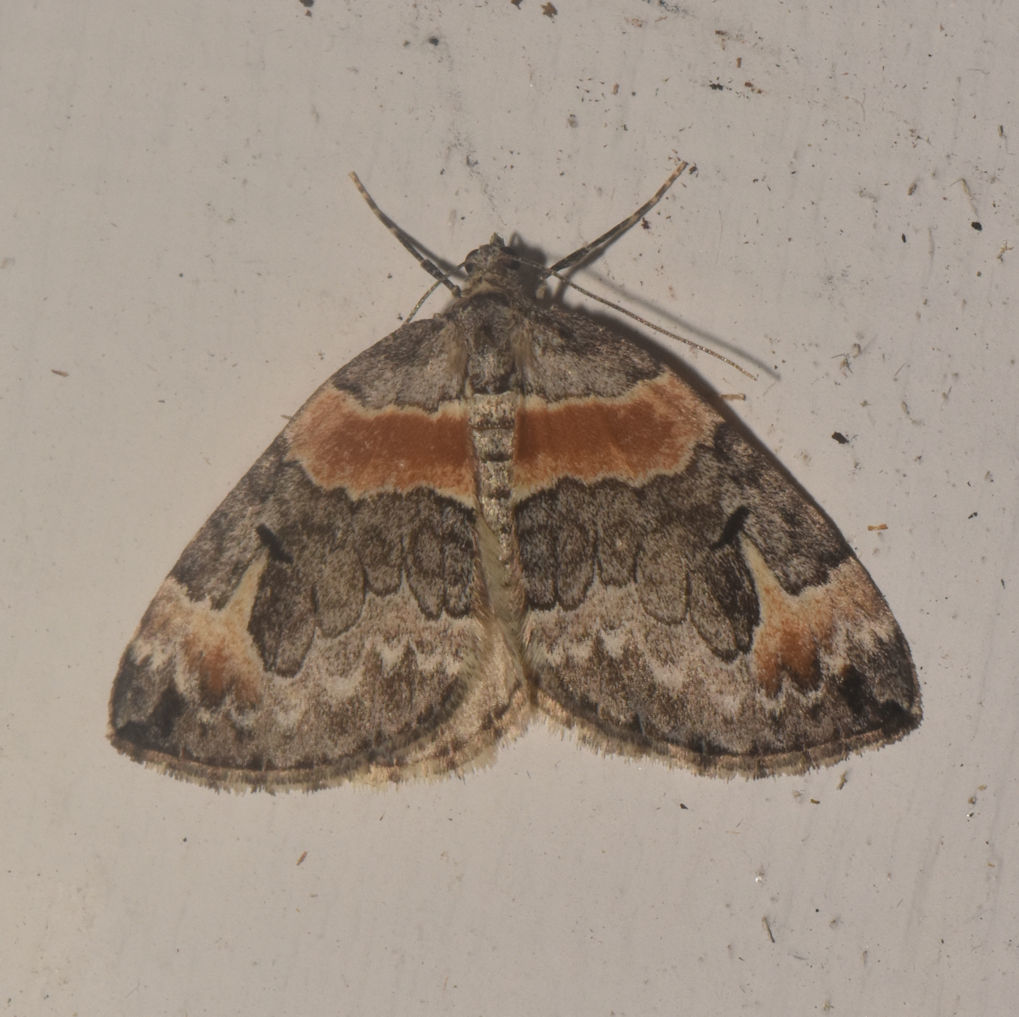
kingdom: Animalia
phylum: Arthropoda
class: Insecta
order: Lepidoptera
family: Geometridae
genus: Dysstroma
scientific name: Dysstroma hersiliata
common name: Orange-barred carpet
